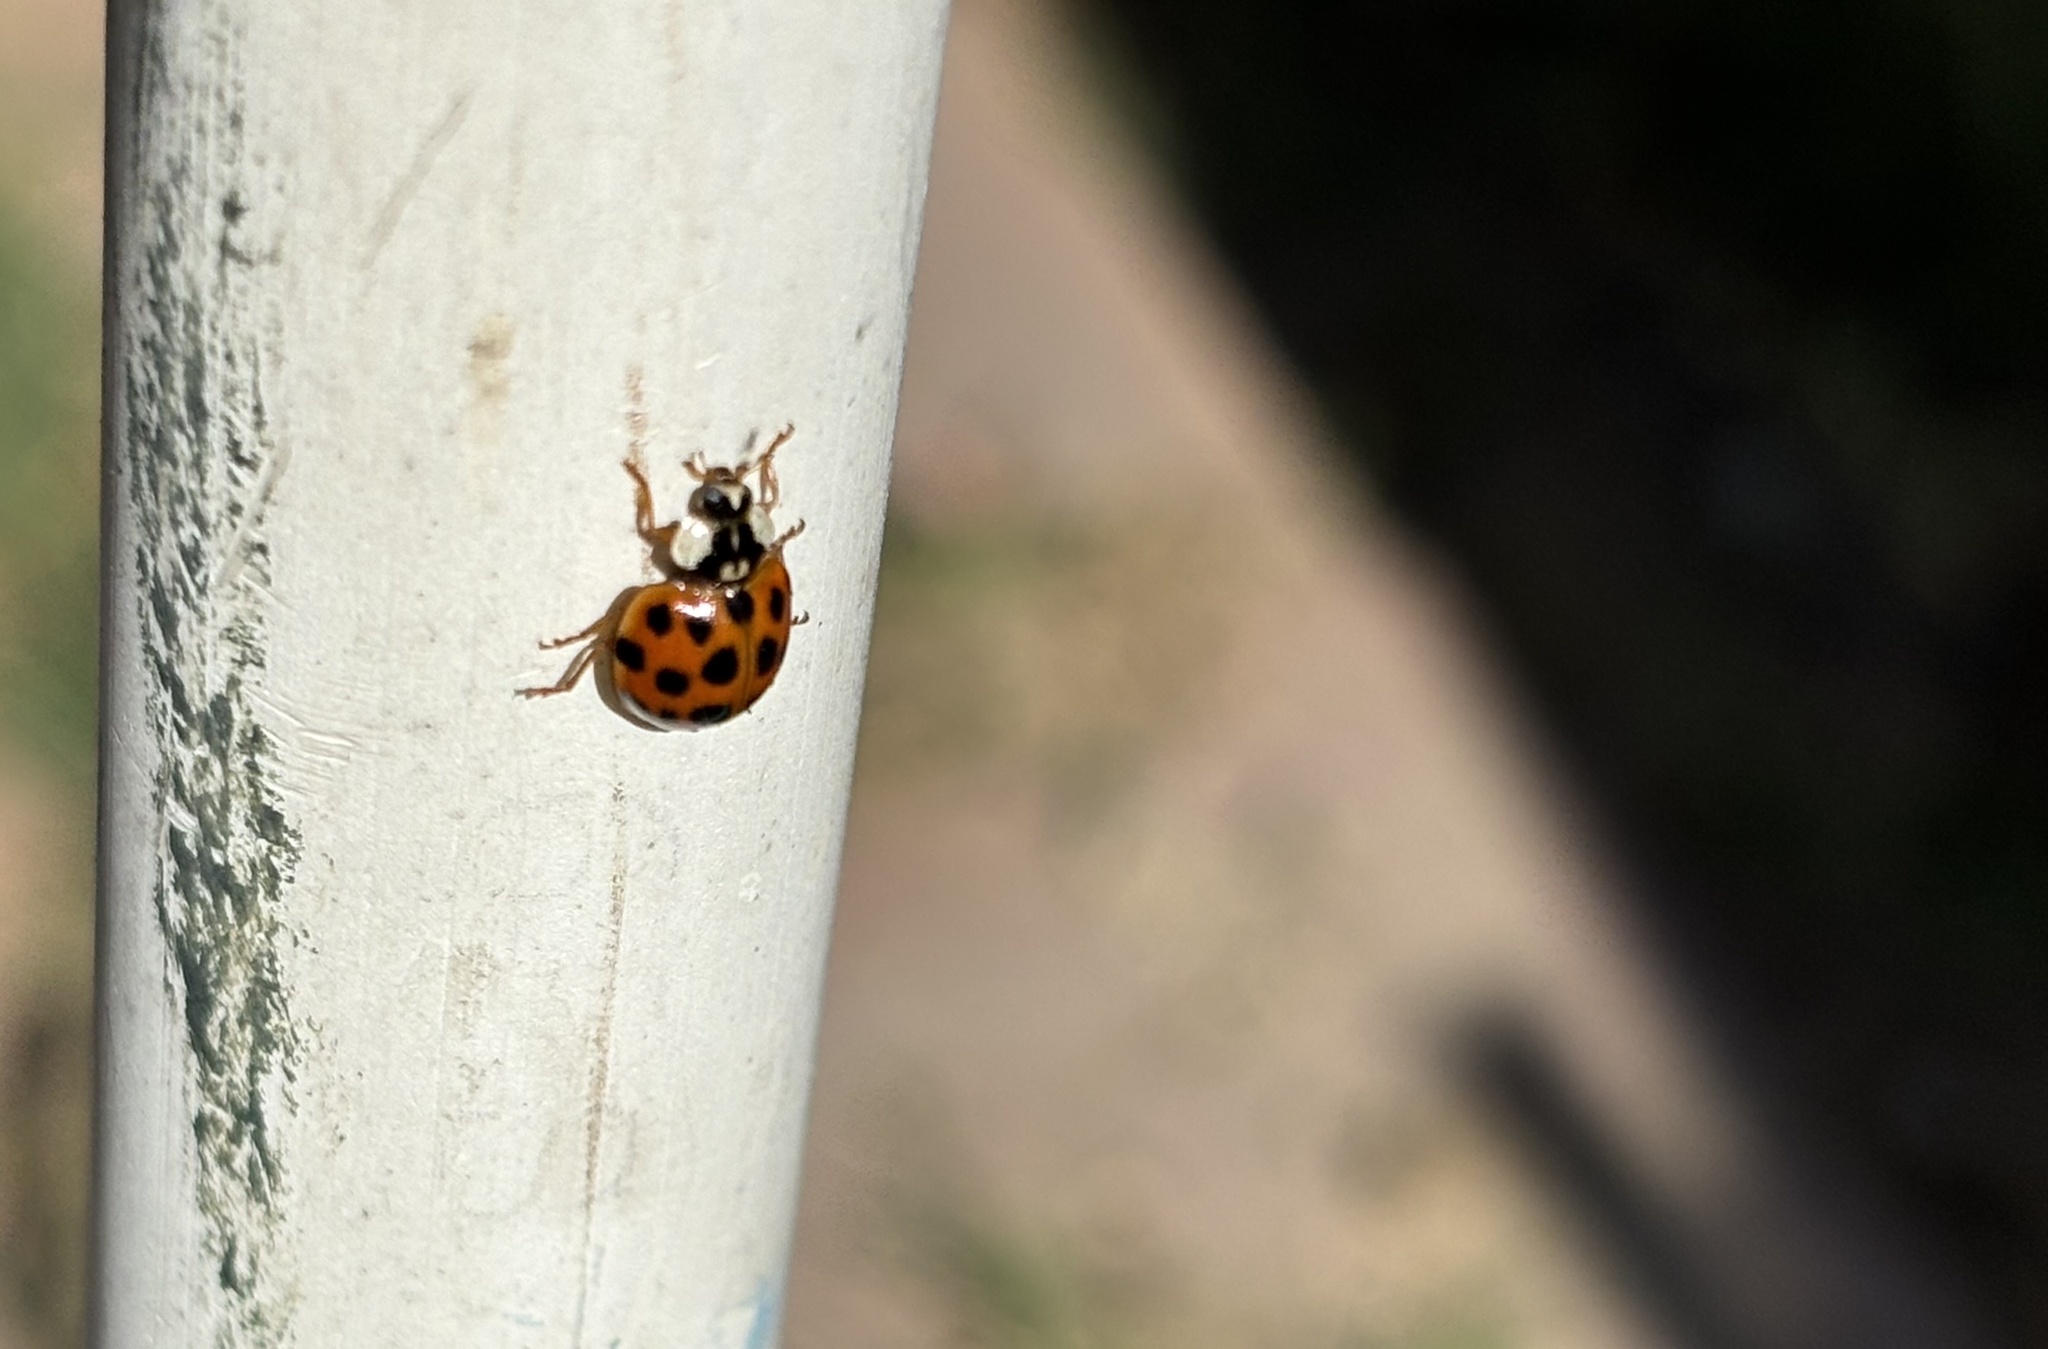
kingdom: Animalia
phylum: Arthropoda
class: Insecta
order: Coleoptera
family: Coccinellidae
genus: Harmonia
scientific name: Harmonia axyridis
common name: Harlequin ladybird
